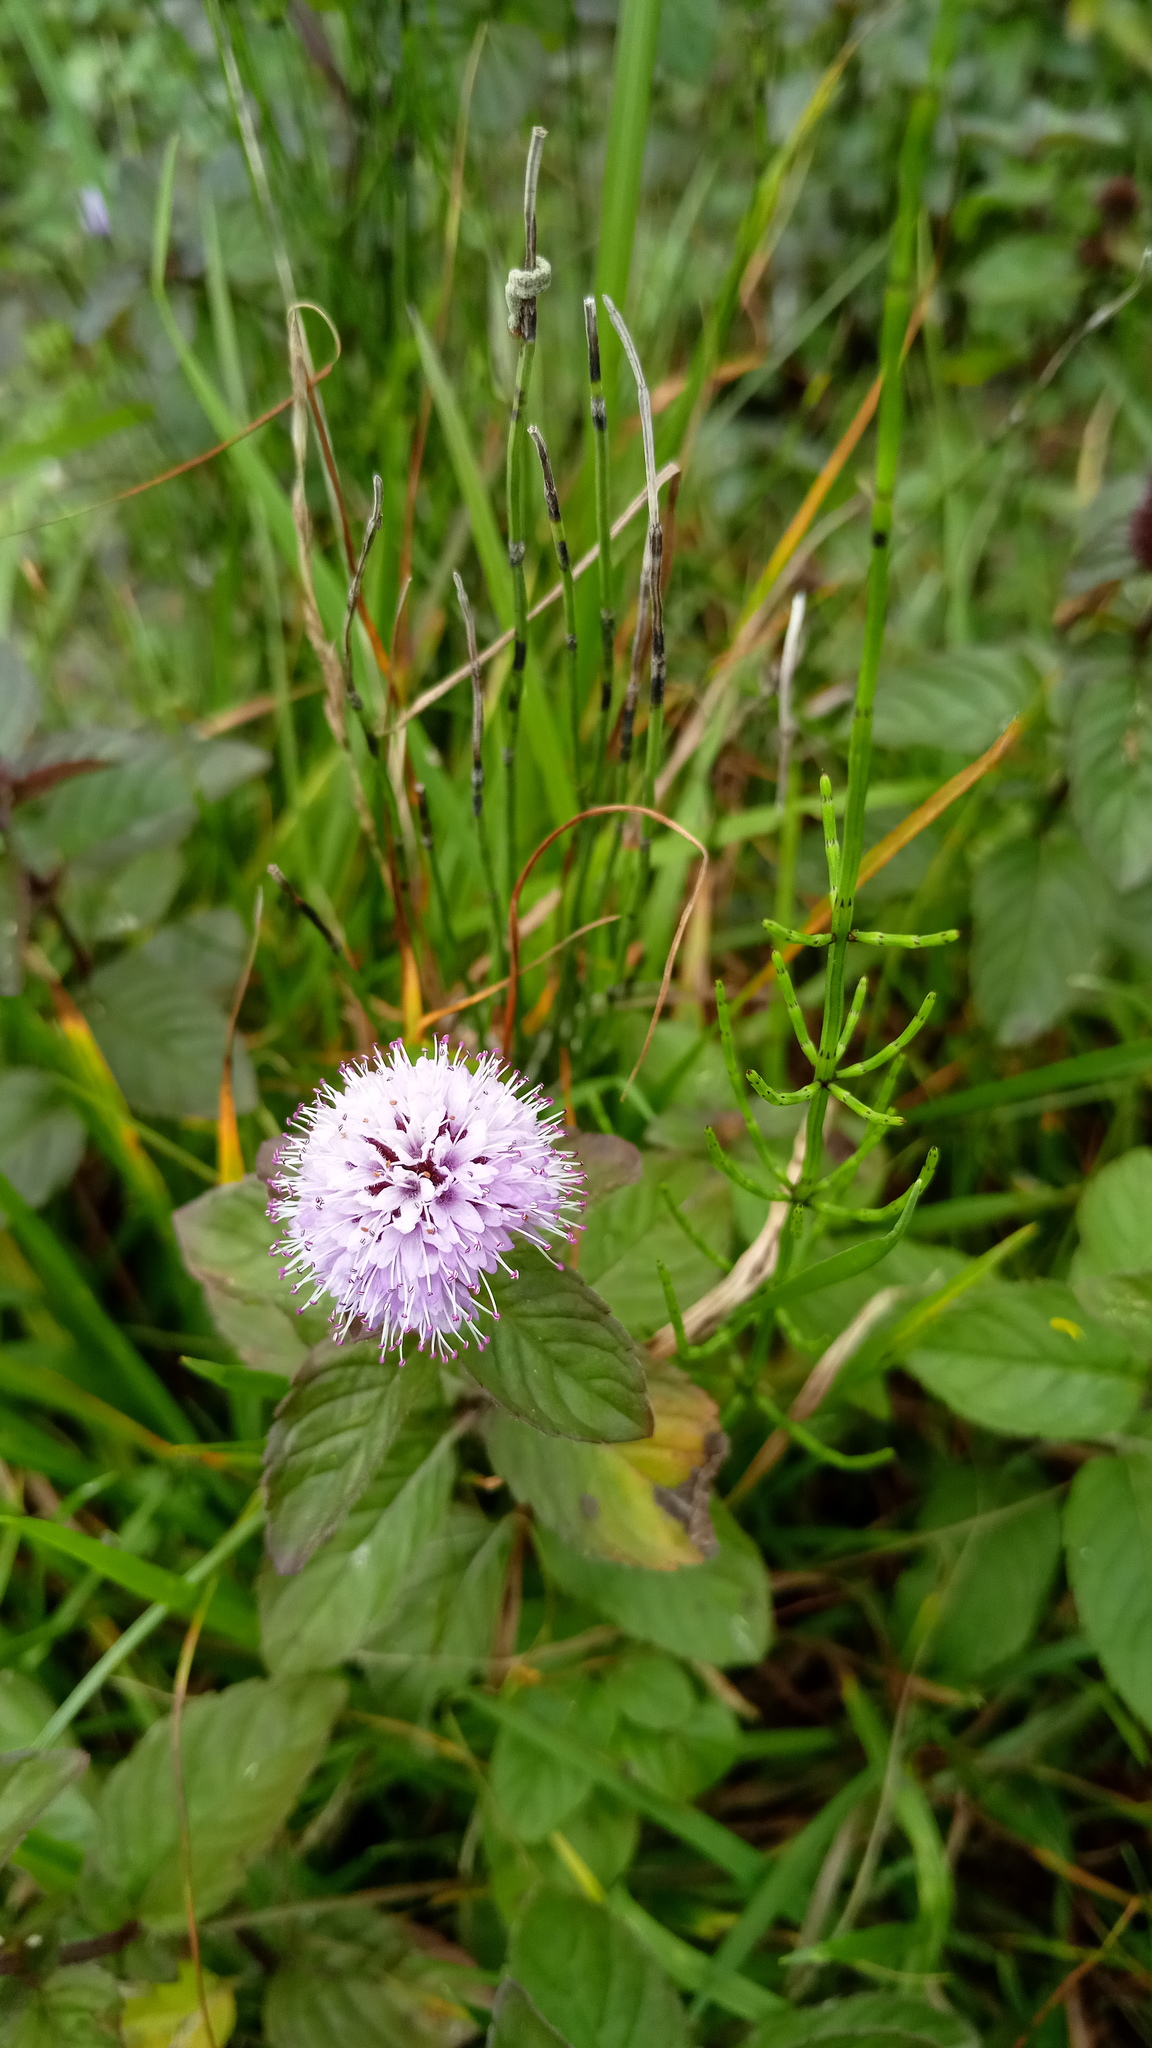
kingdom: Plantae
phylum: Tracheophyta
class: Magnoliopsida
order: Lamiales
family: Lamiaceae
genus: Mentha
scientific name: Mentha aquatica
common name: Water mint
